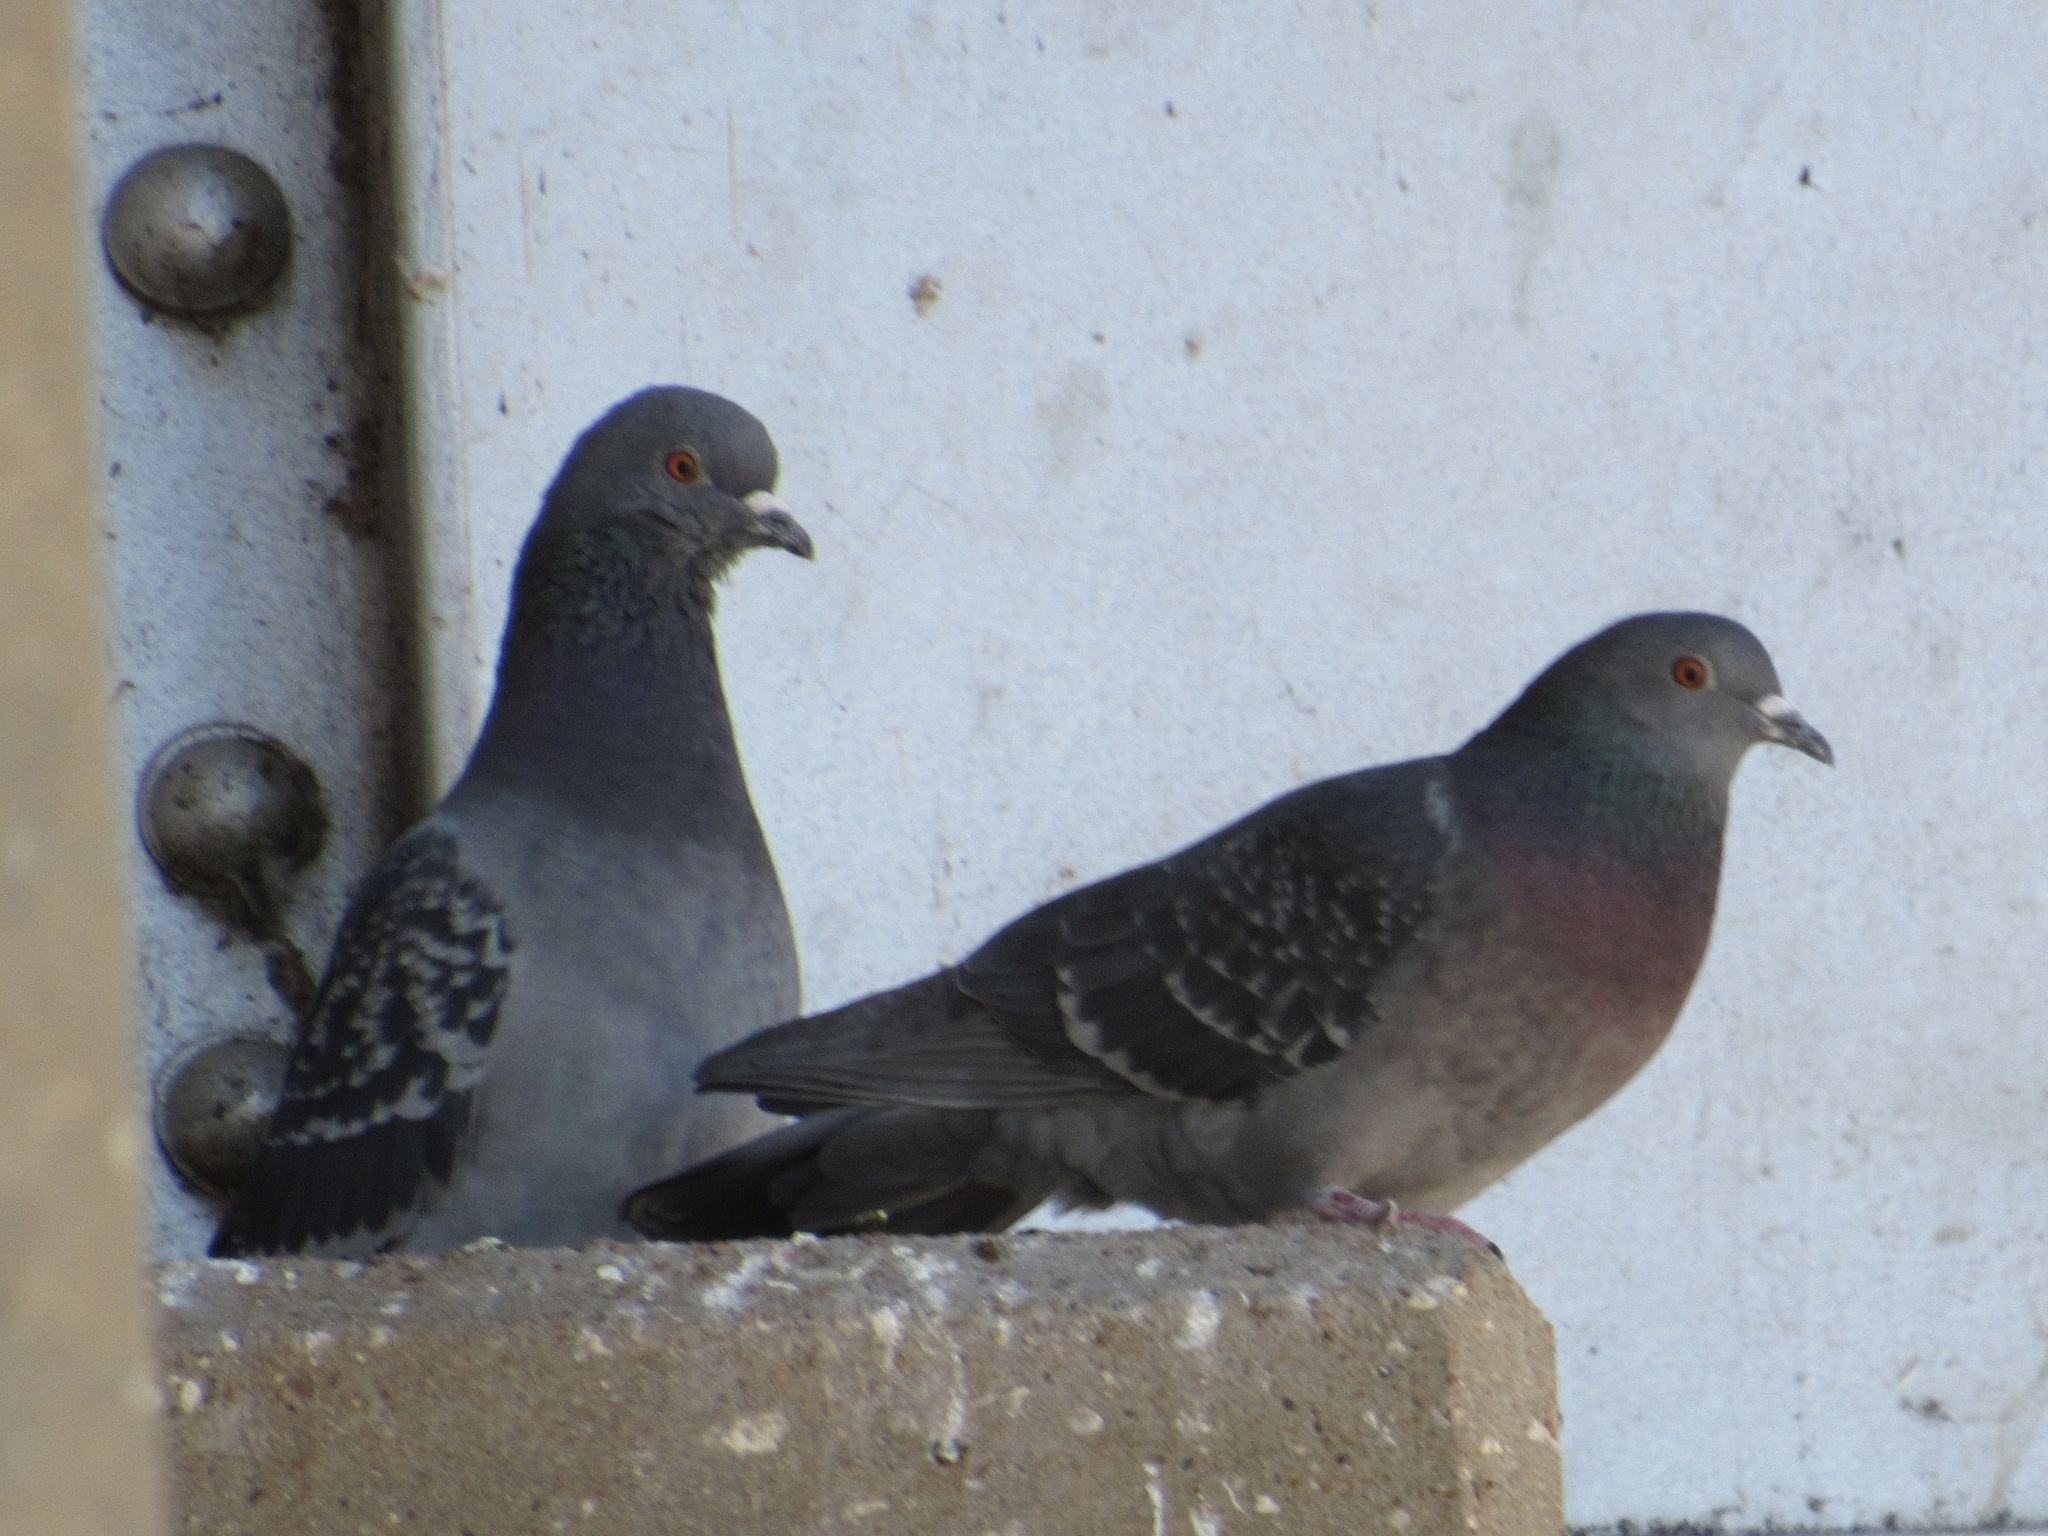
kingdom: Animalia
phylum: Chordata
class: Aves
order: Columbiformes
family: Columbidae
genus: Columba
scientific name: Columba livia
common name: Rock pigeon
